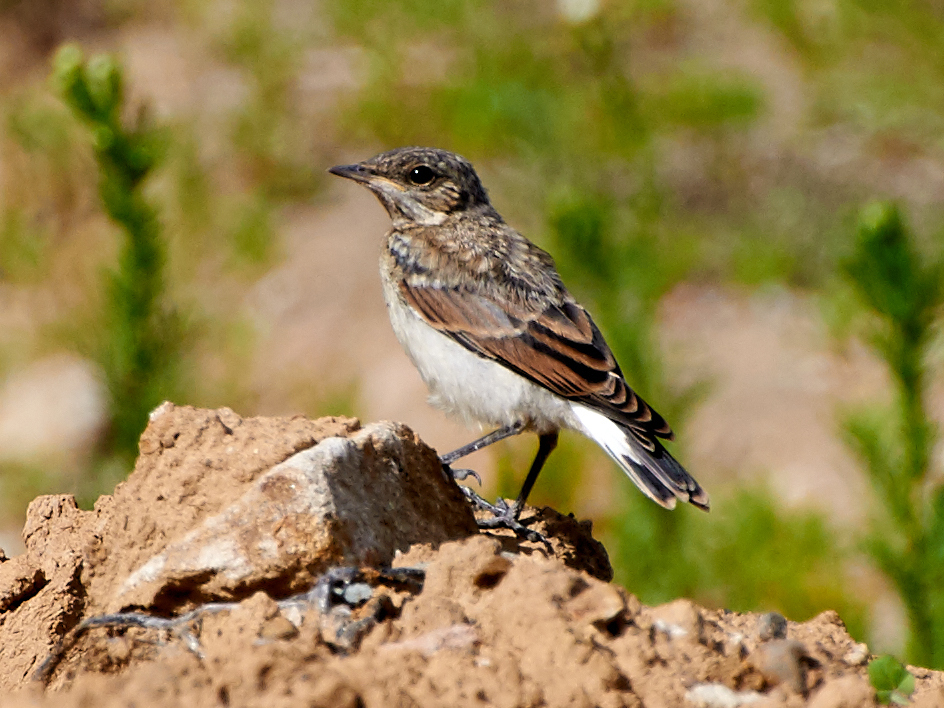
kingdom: Animalia
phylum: Chordata
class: Aves
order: Passeriformes
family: Muscicapidae
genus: Oenanthe
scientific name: Oenanthe oenanthe
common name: Northern wheatear
